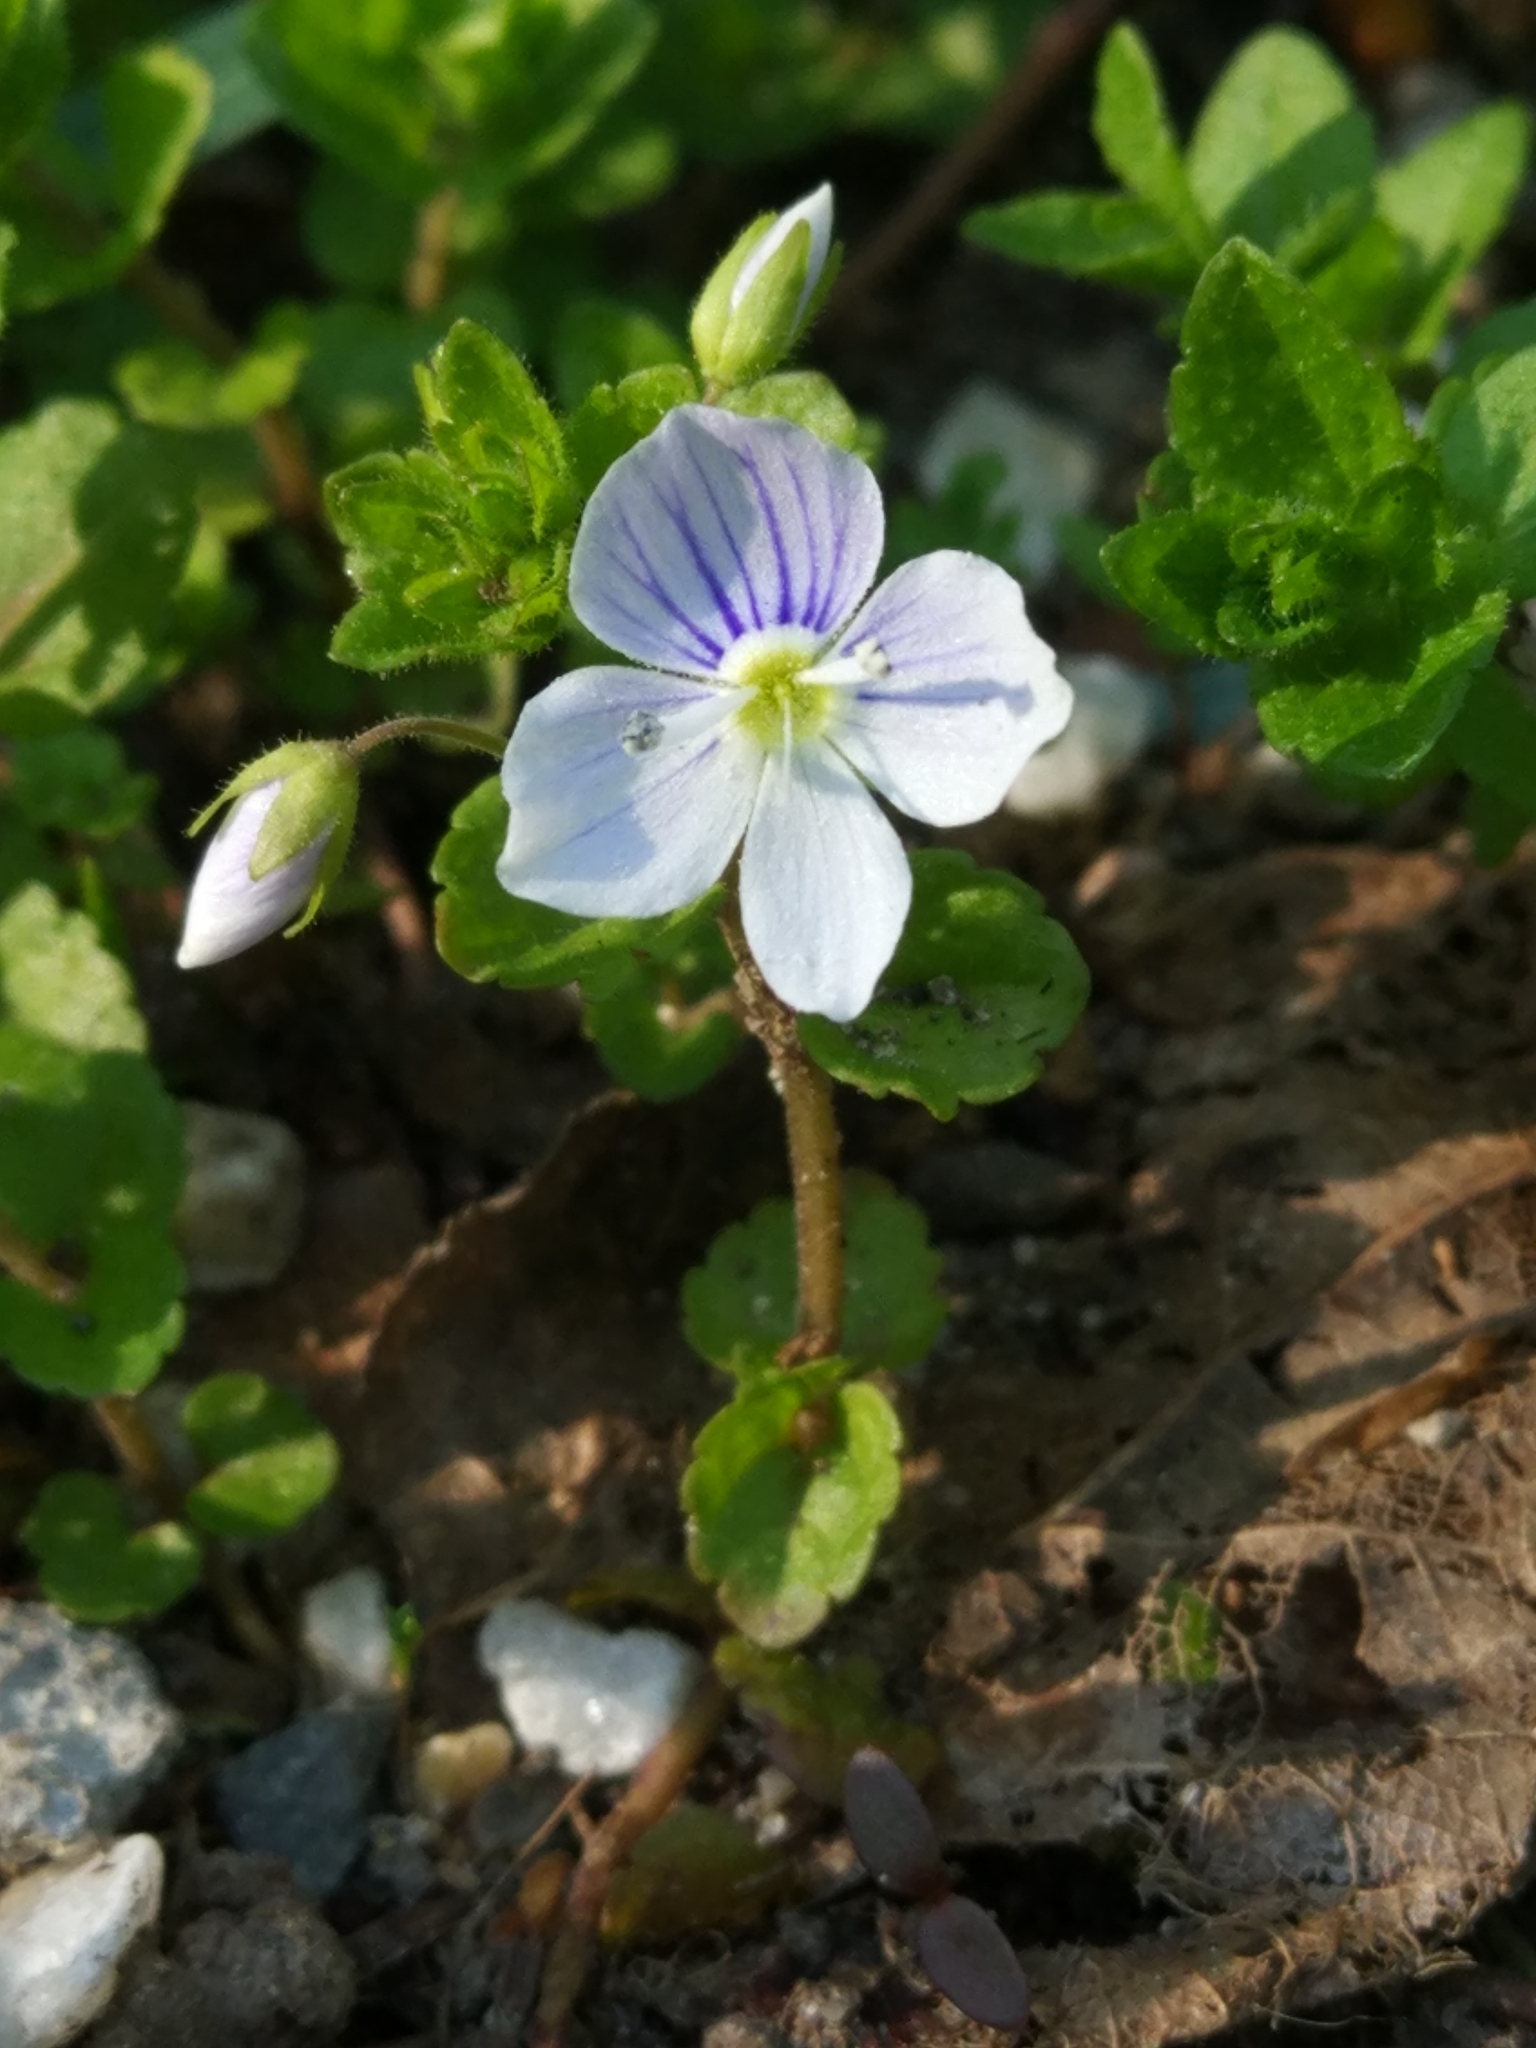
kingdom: Plantae
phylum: Tracheophyta
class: Magnoliopsida
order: Lamiales
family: Plantaginaceae
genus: Veronica
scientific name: Veronica filiformis
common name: Slender speedwell
